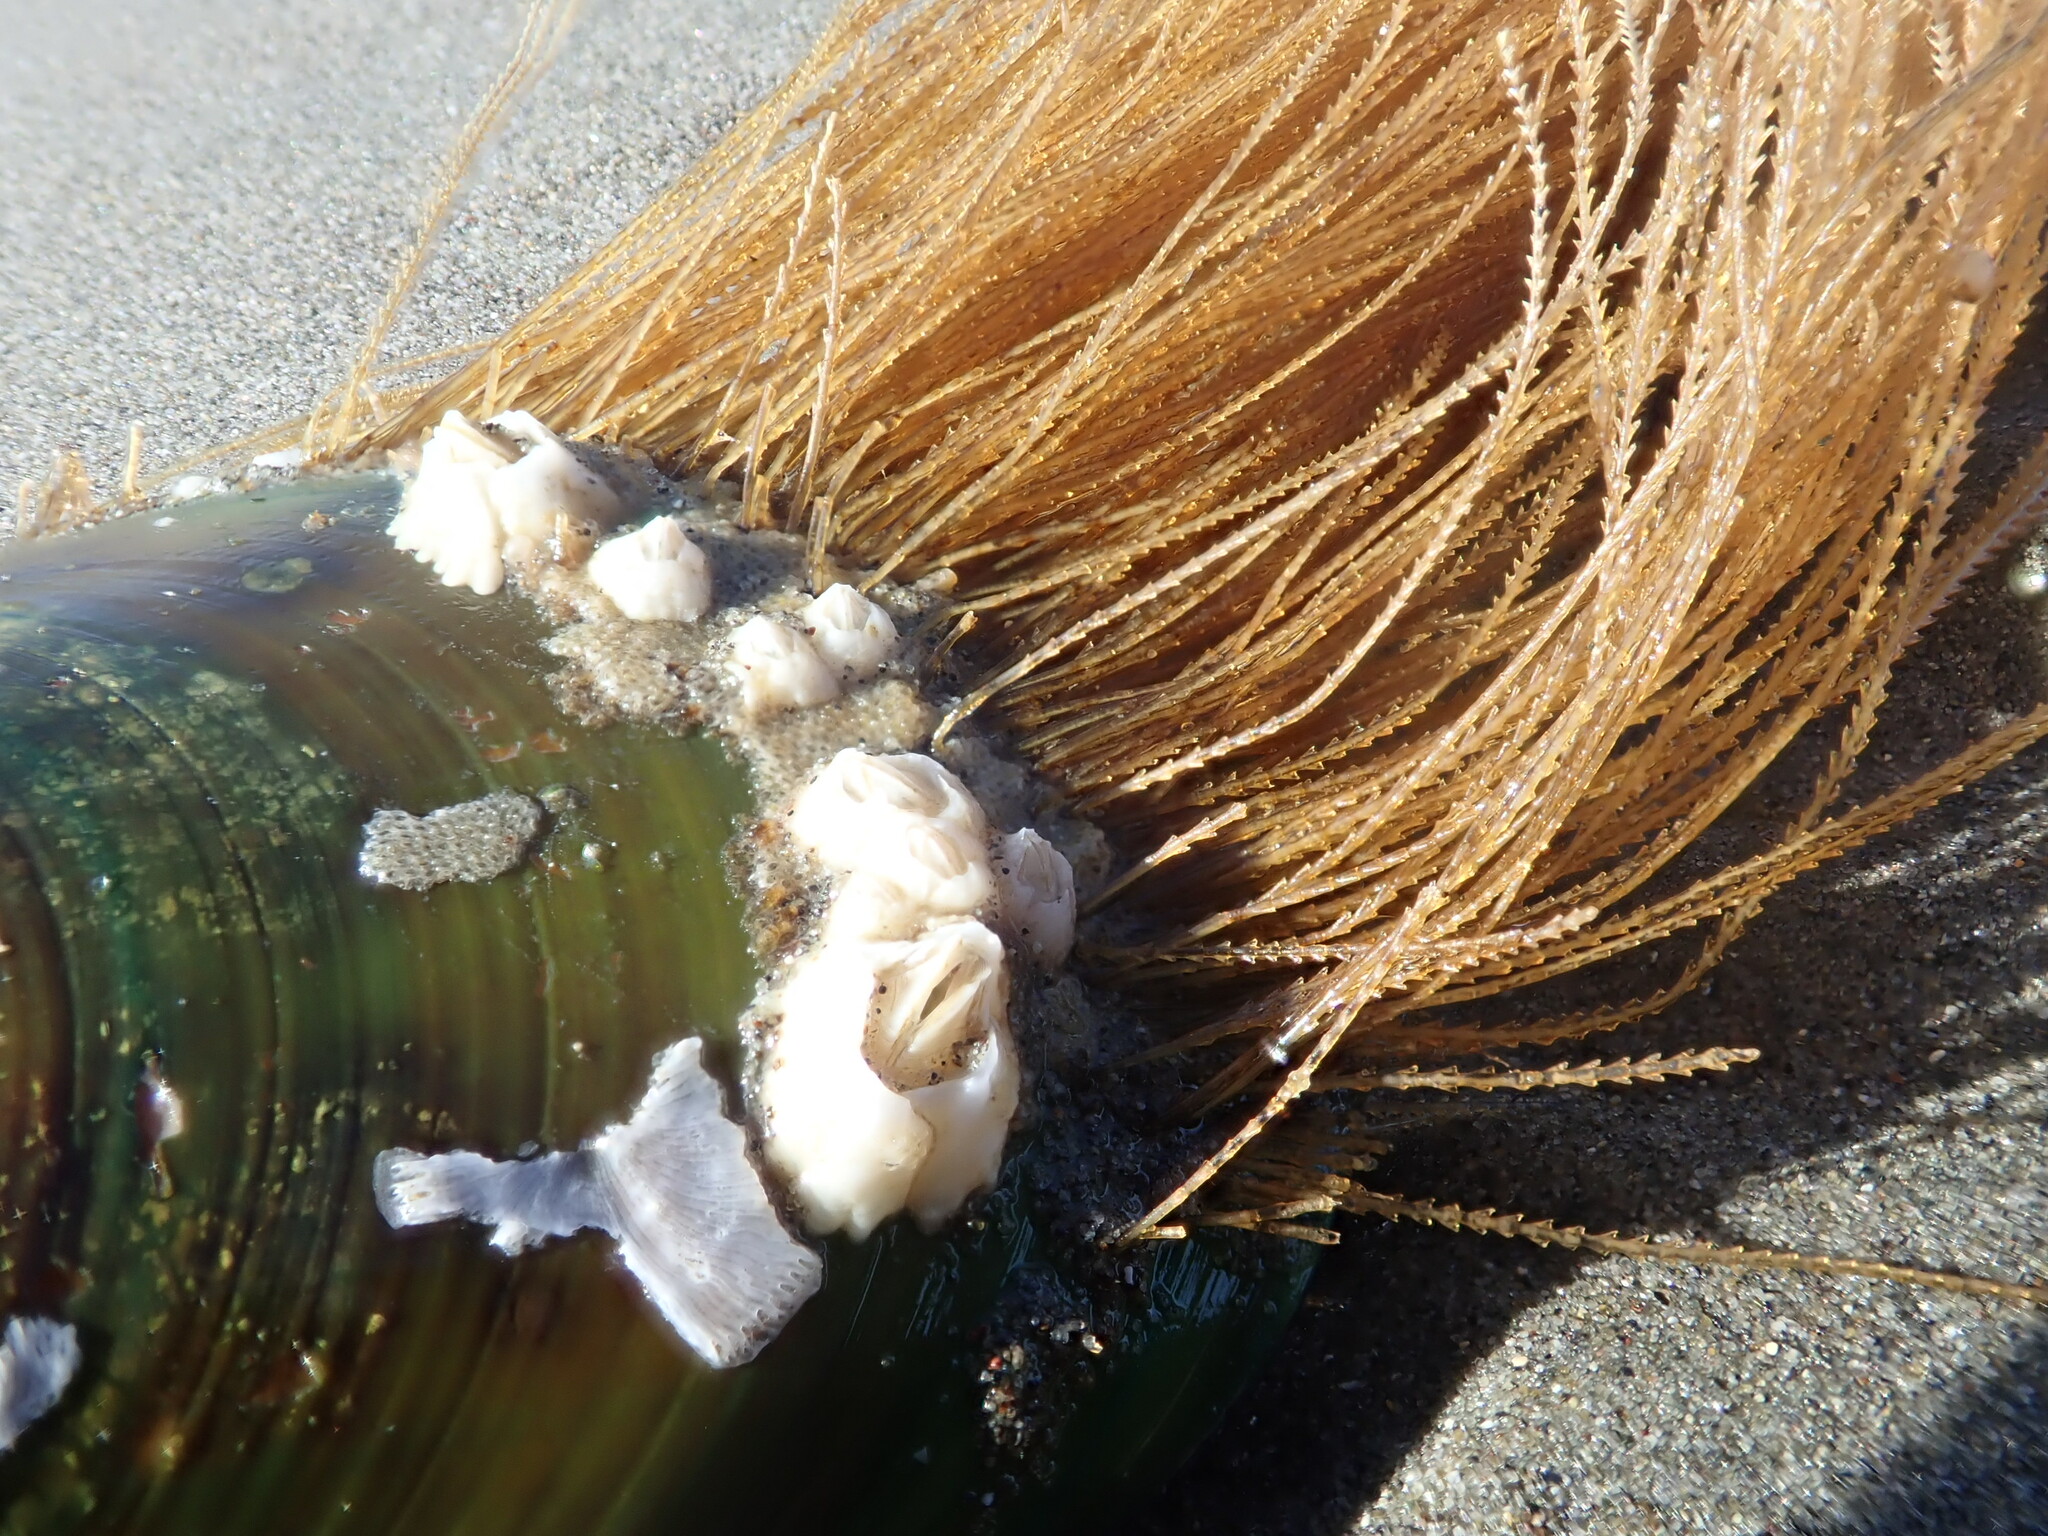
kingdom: Animalia
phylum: Cnidaria
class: Hydrozoa
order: Leptothecata
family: Sertulariidae
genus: Amphisbetia
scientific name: Amphisbetia bispinosa
